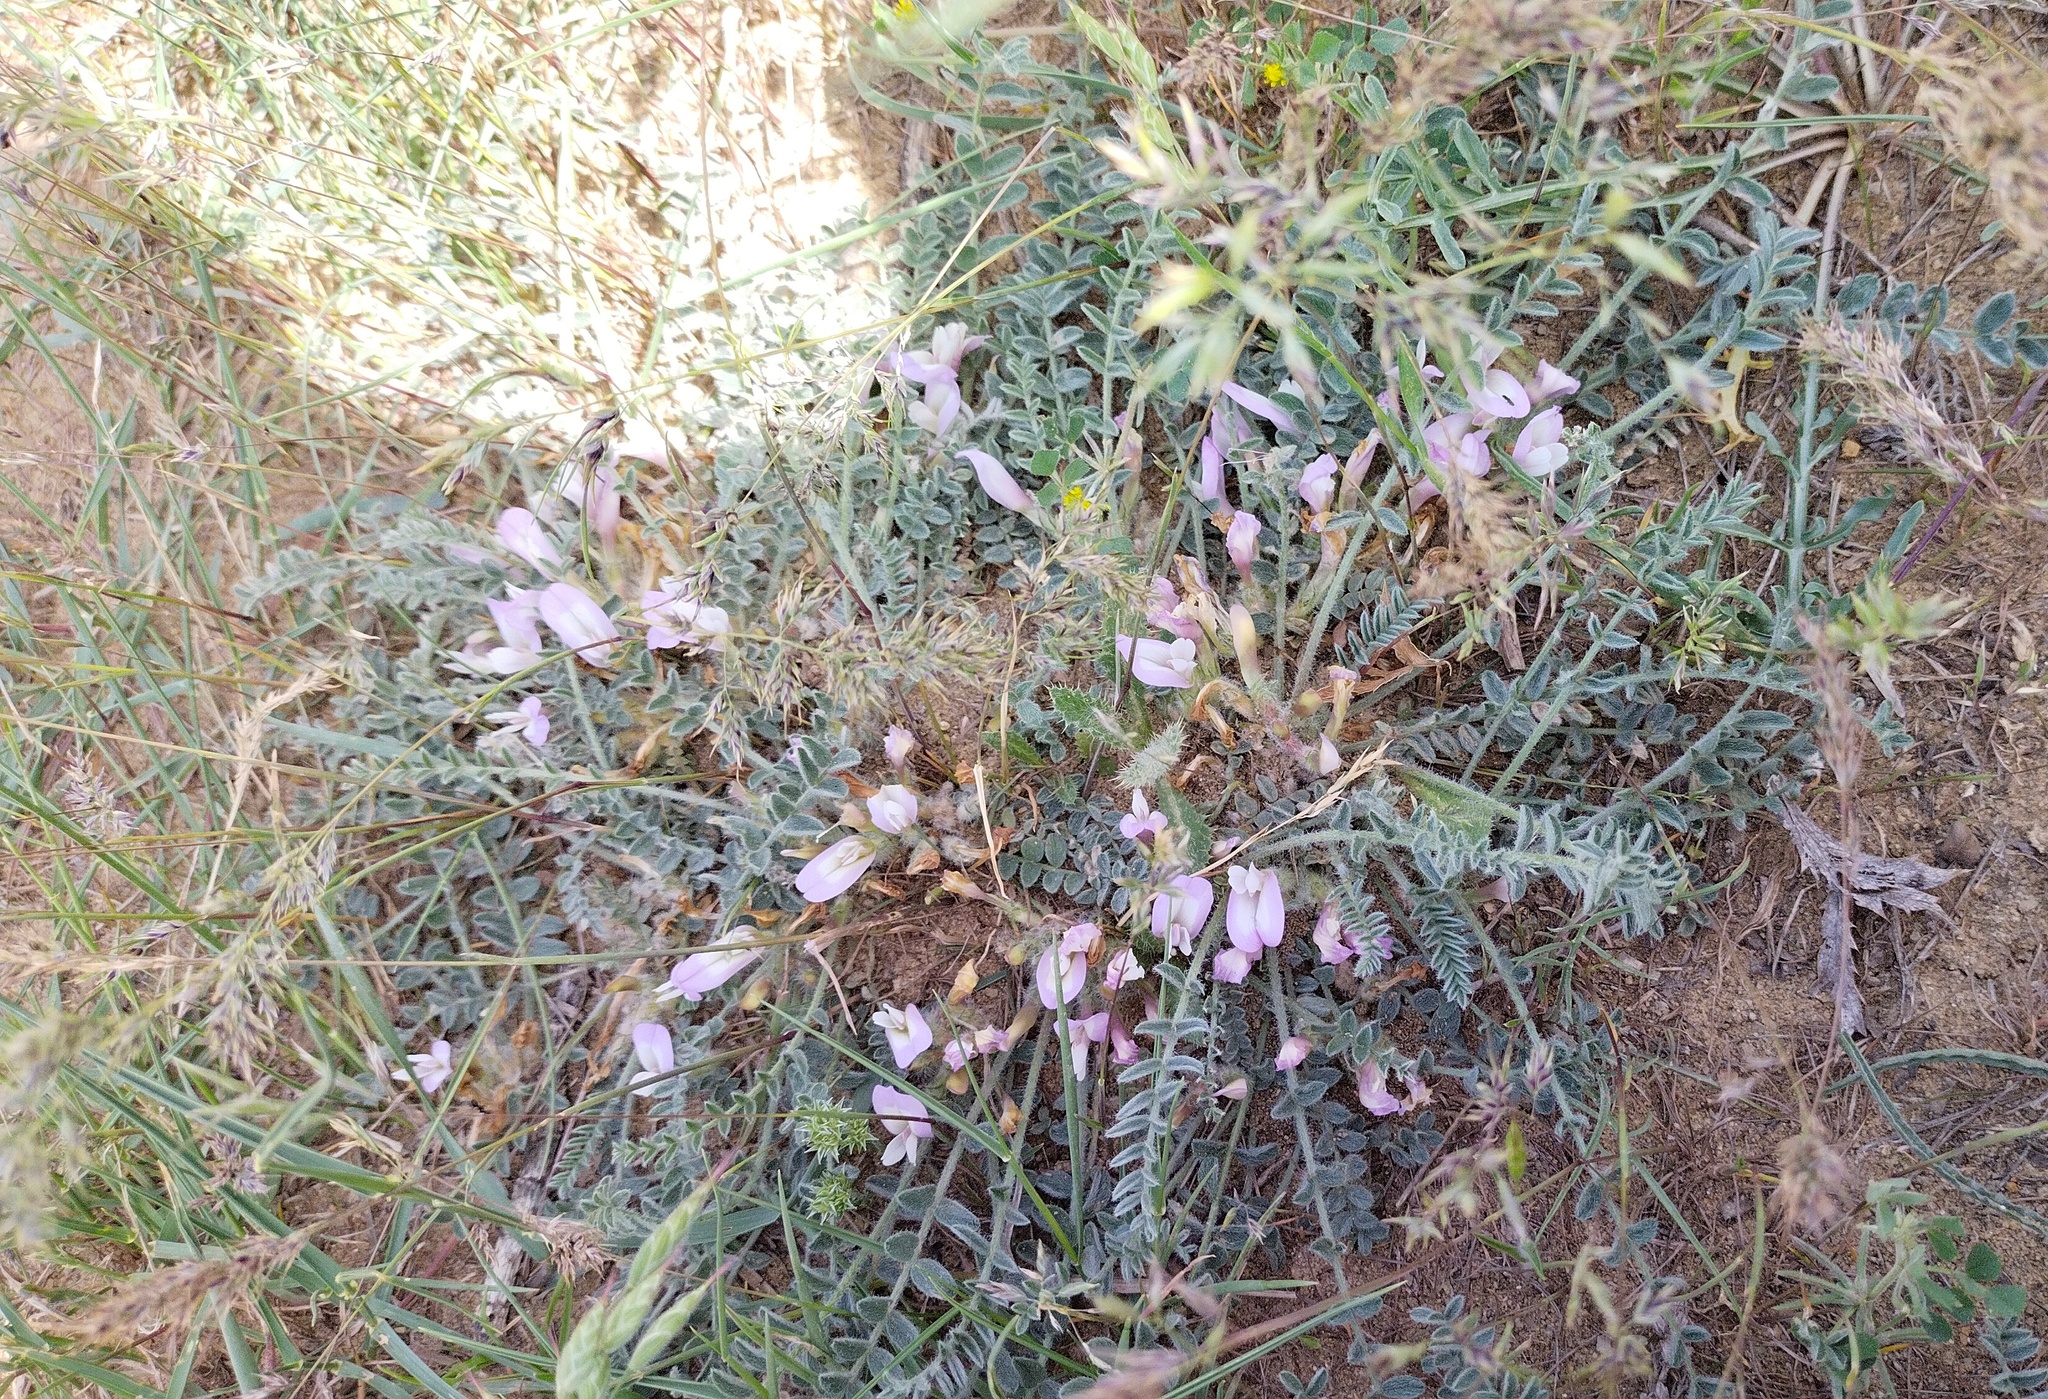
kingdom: Plantae
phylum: Tracheophyta
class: Magnoliopsida
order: Fabales
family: Fabaceae
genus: Astragalus
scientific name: Astragalus testiculatus
